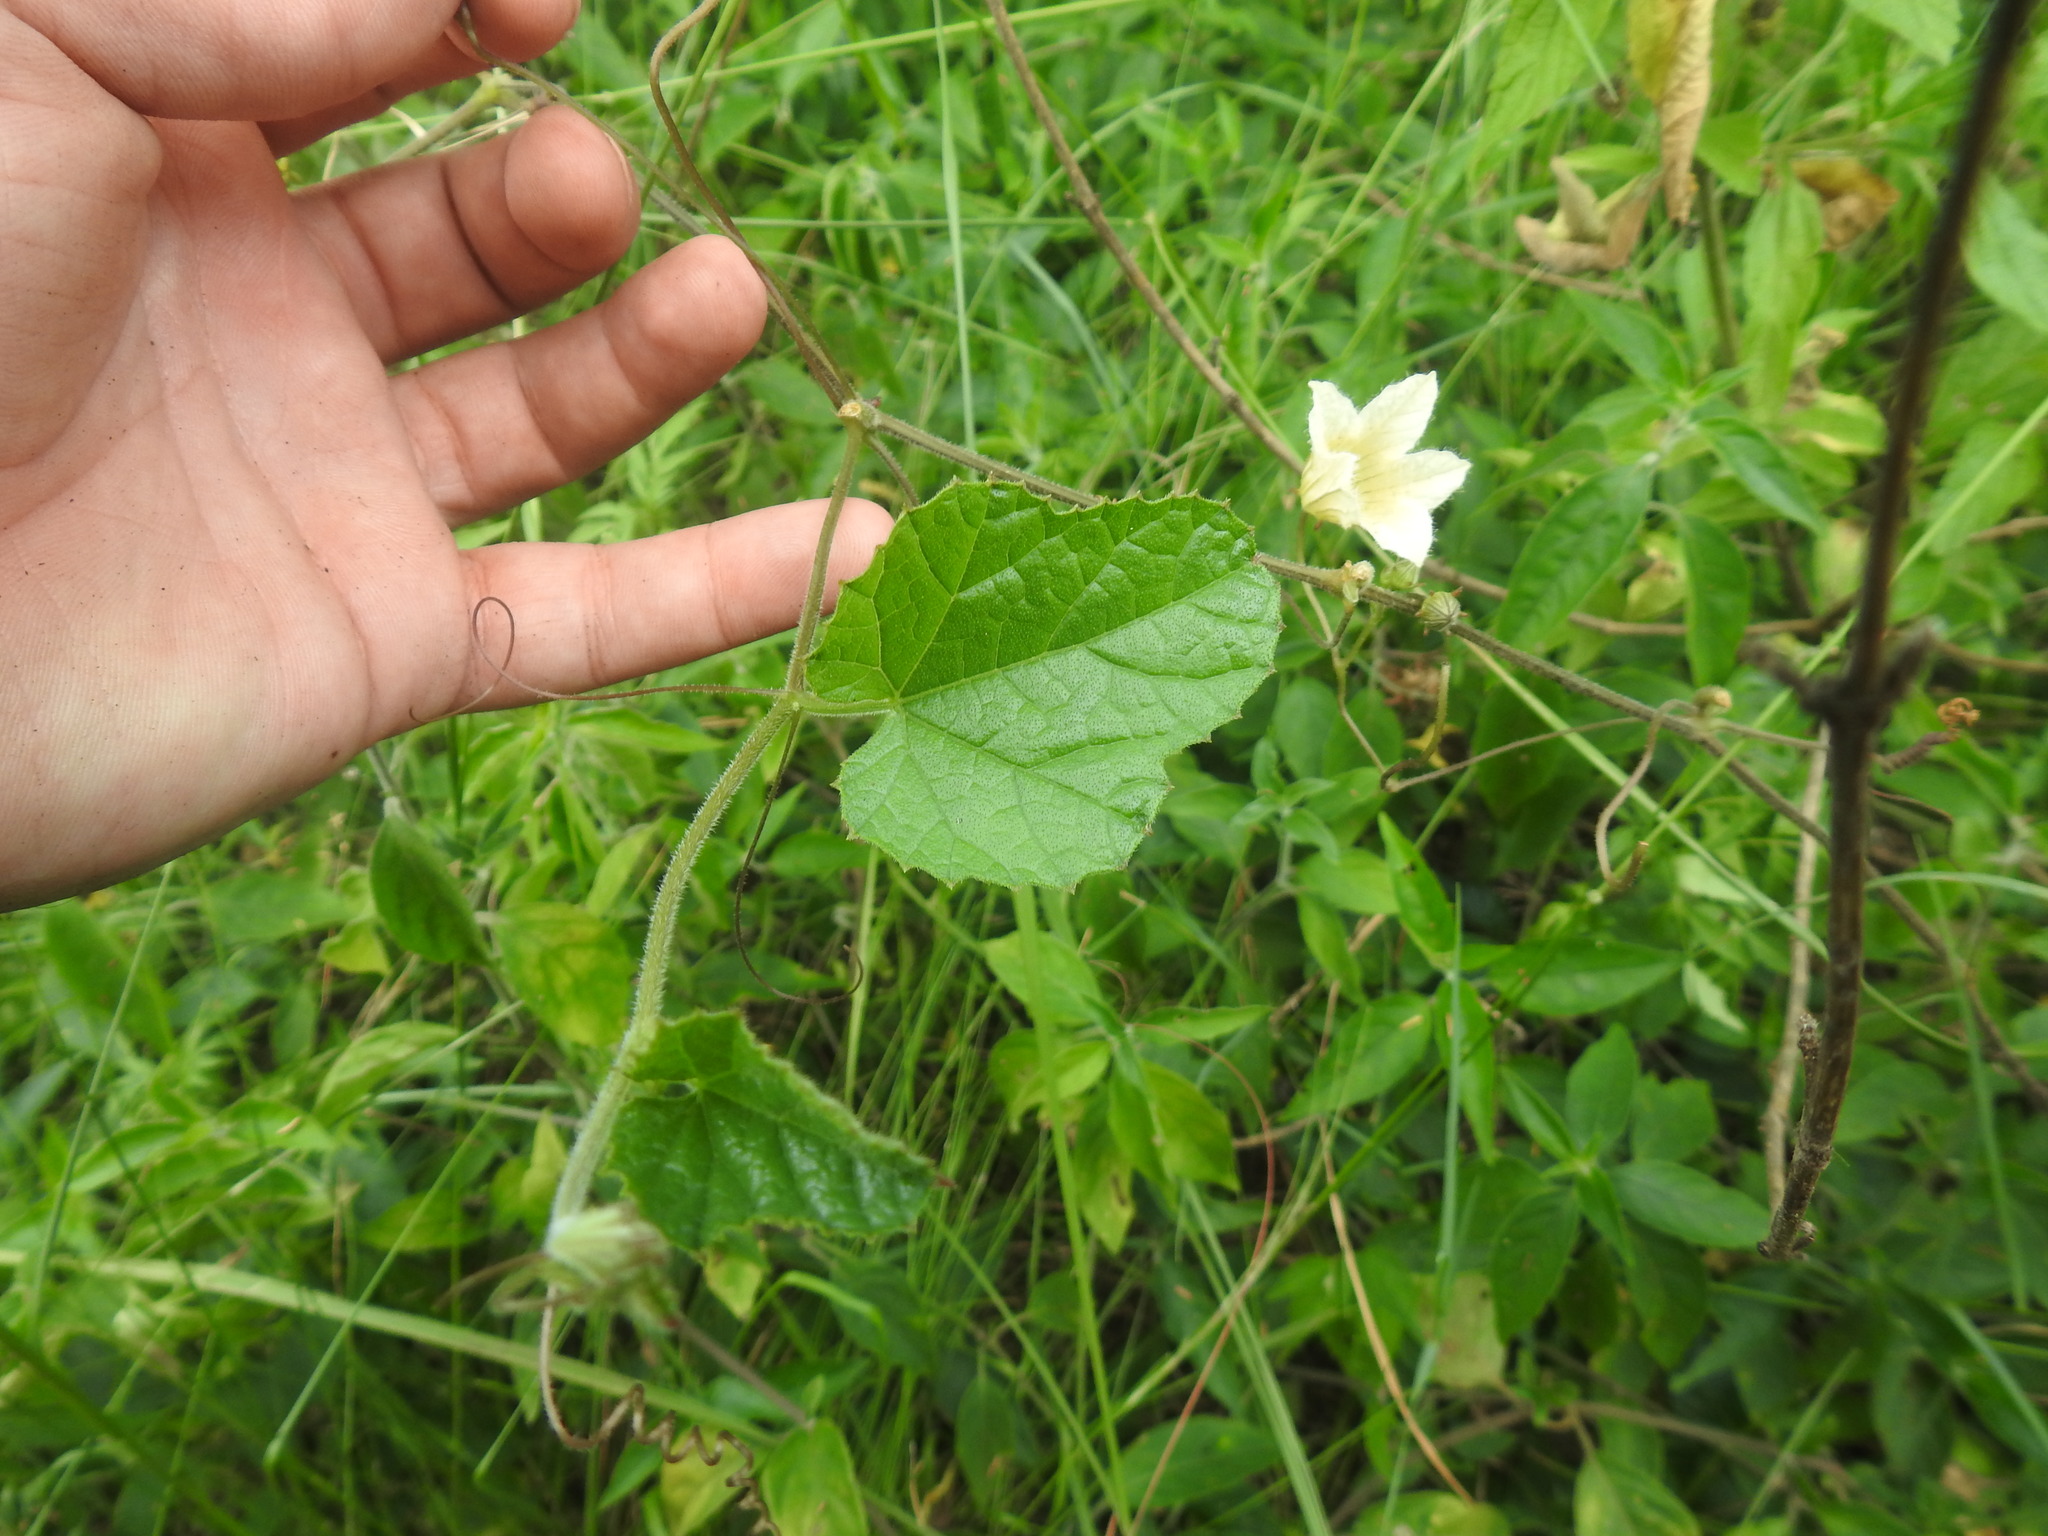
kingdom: Plantae
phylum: Tracheophyta
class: Magnoliopsida
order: Cucurbitales
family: Cucurbitaceae
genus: Coccinia
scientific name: Coccinia adoensis
